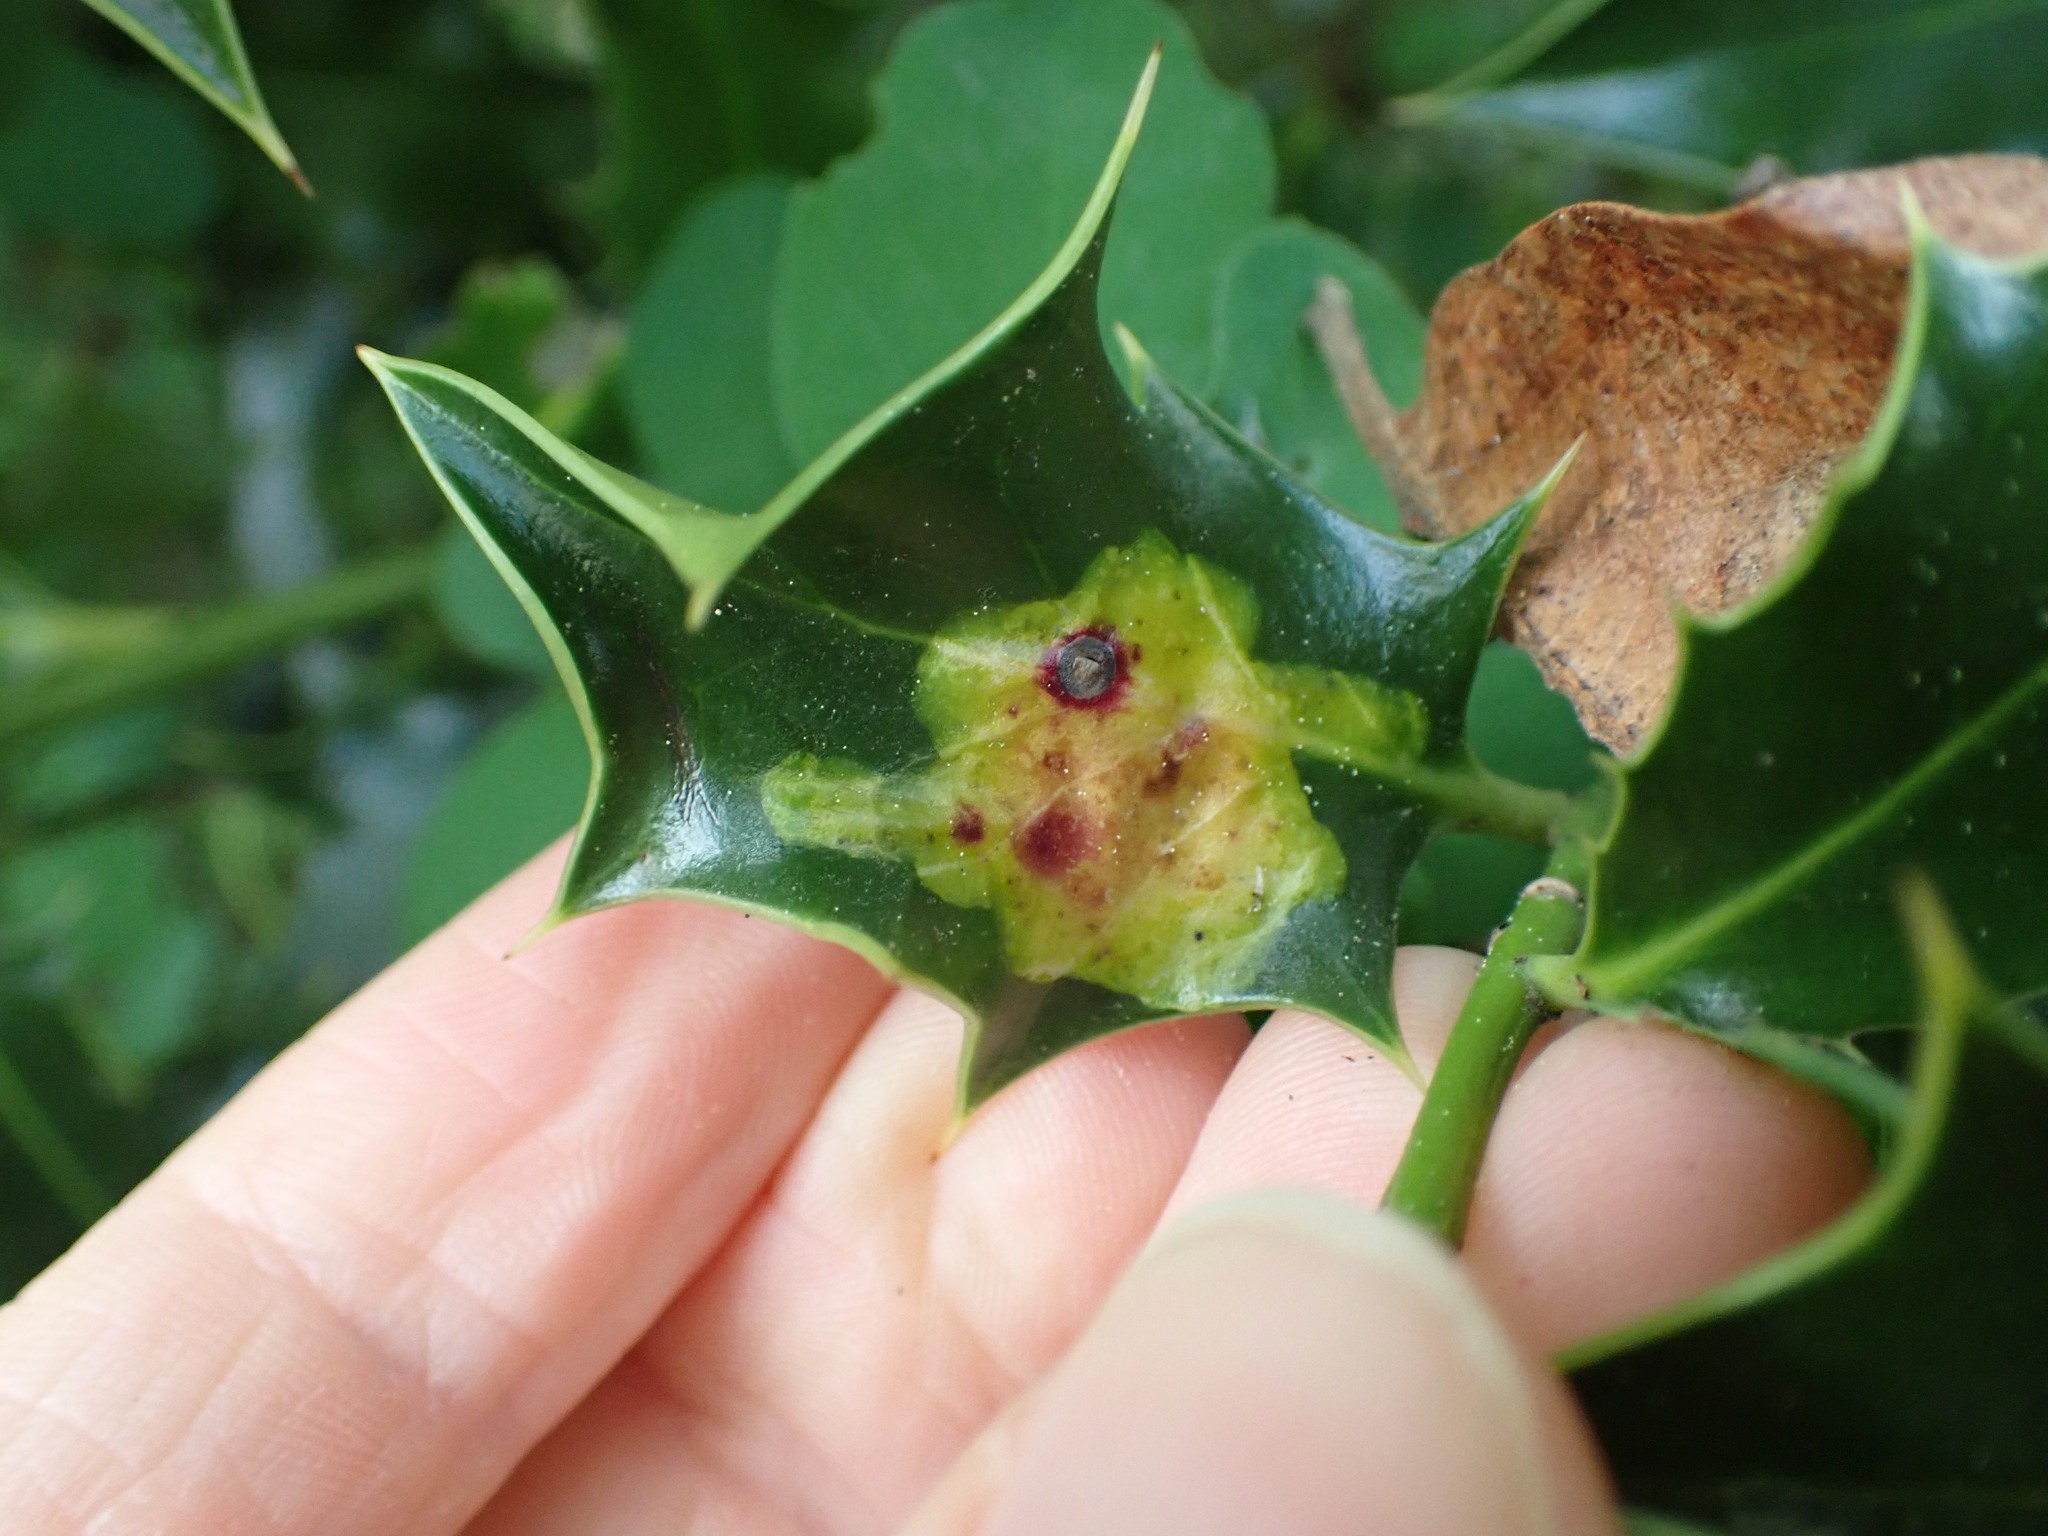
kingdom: Animalia
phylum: Arthropoda
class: Insecta
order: Diptera
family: Agromyzidae
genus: Phytomyza
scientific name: Phytomyza ilicis
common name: Holly leafminer
